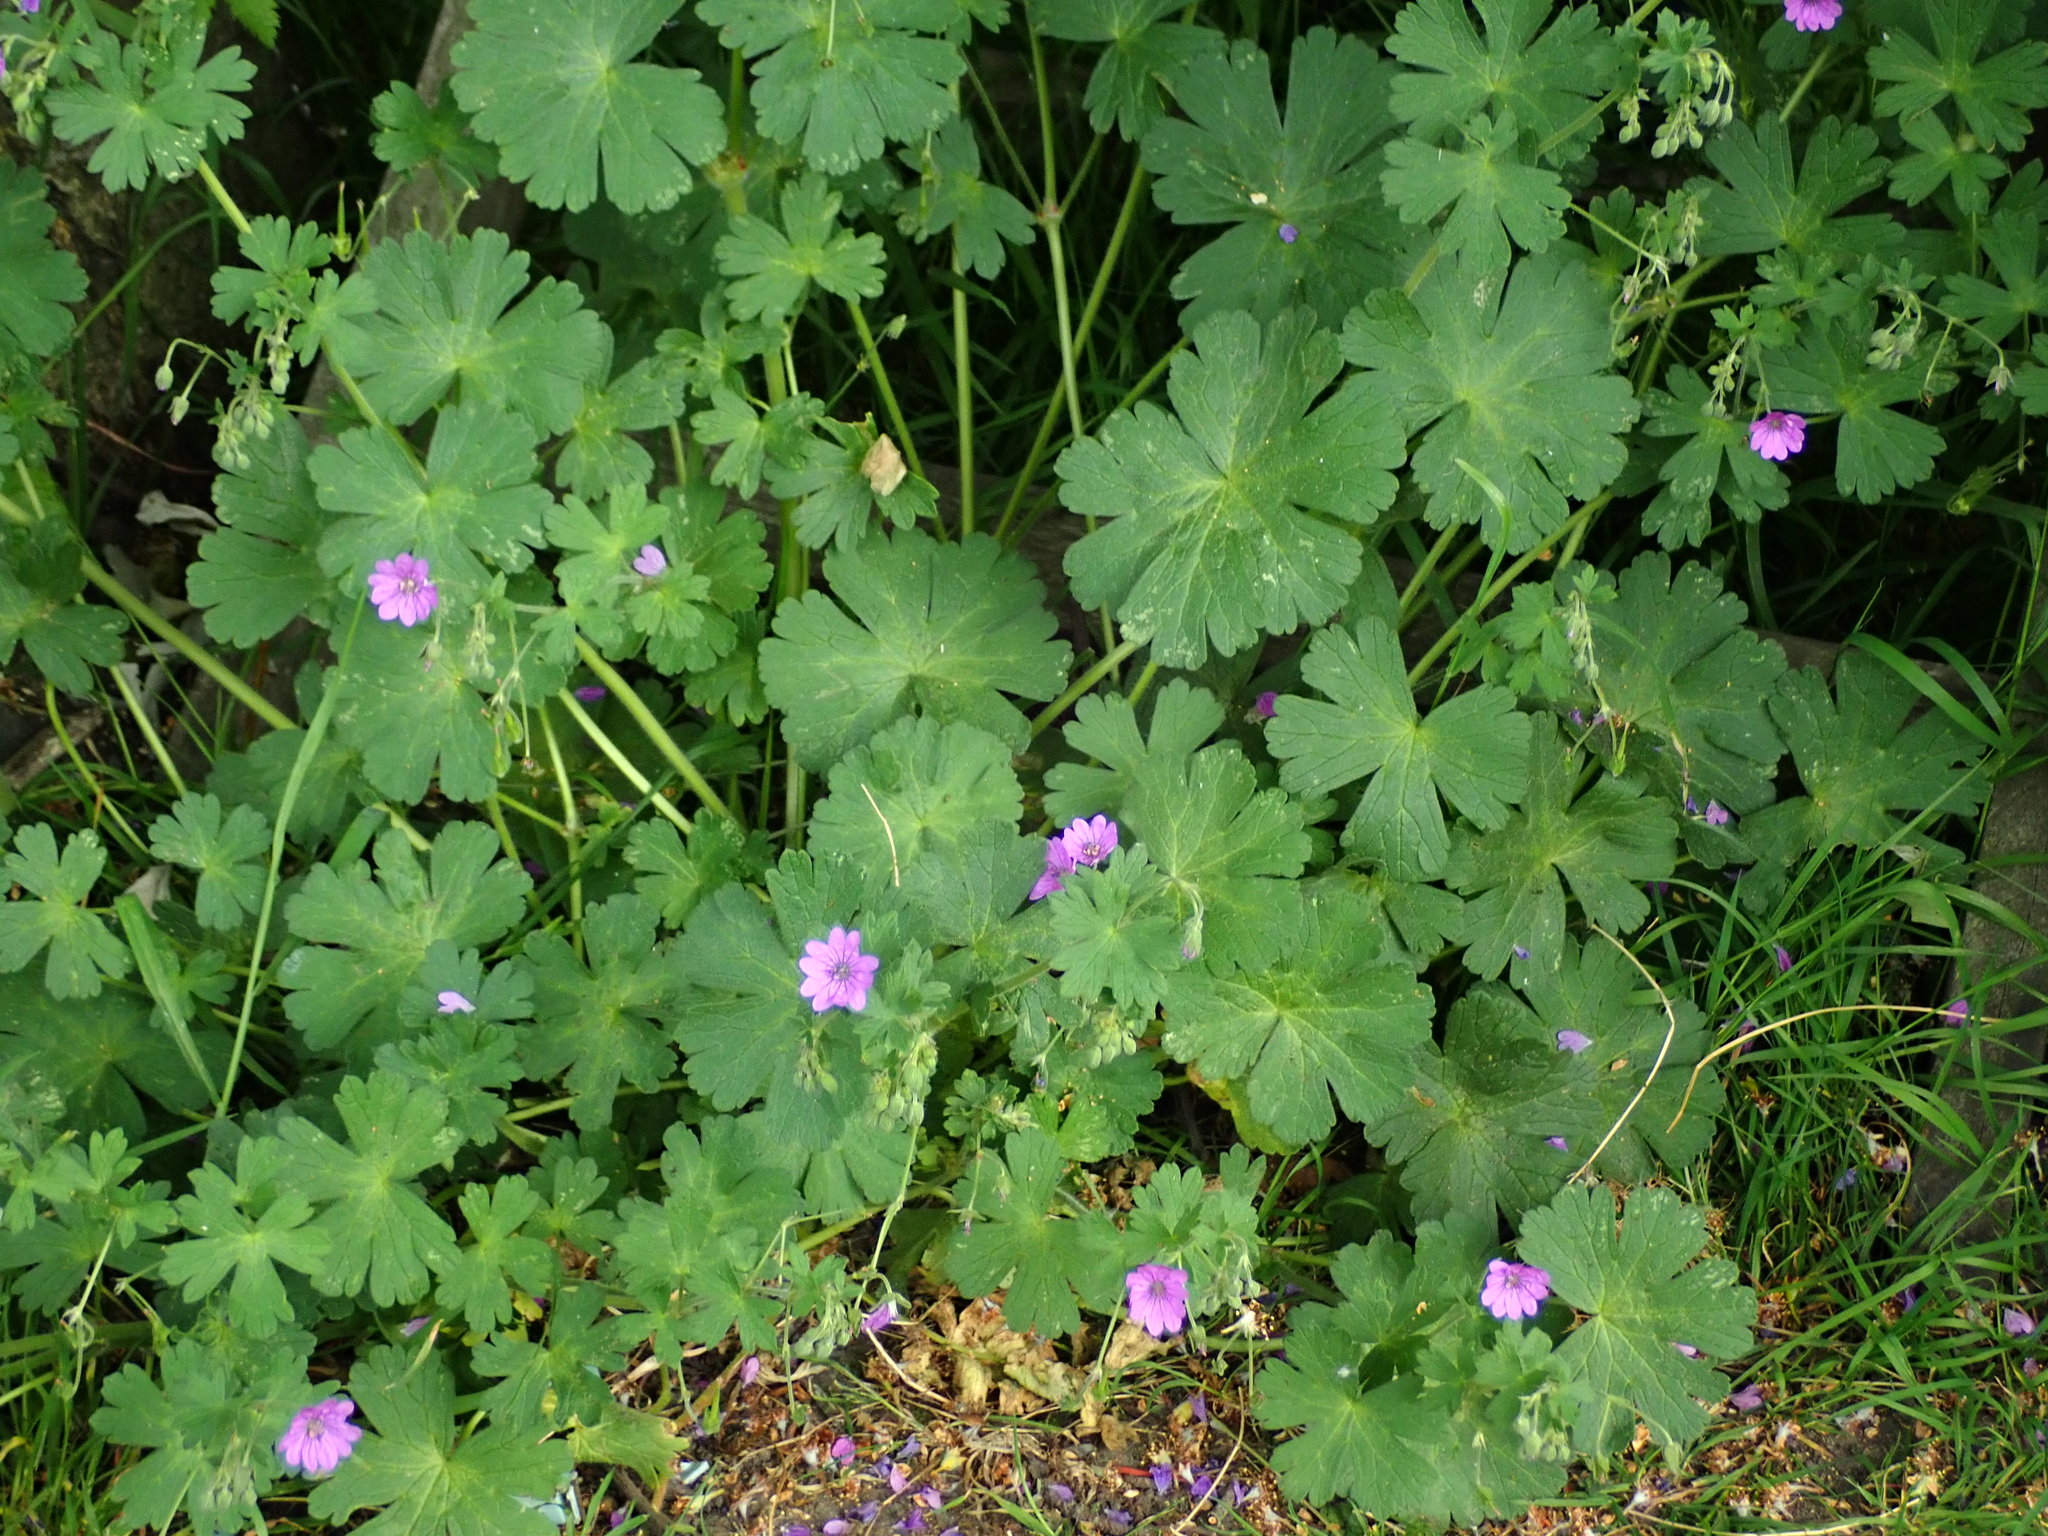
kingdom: Plantae
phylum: Tracheophyta
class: Magnoliopsida
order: Geraniales
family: Geraniaceae
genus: Geranium
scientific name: Geranium pyrenaicum
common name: Hedgerow crane's-bill
